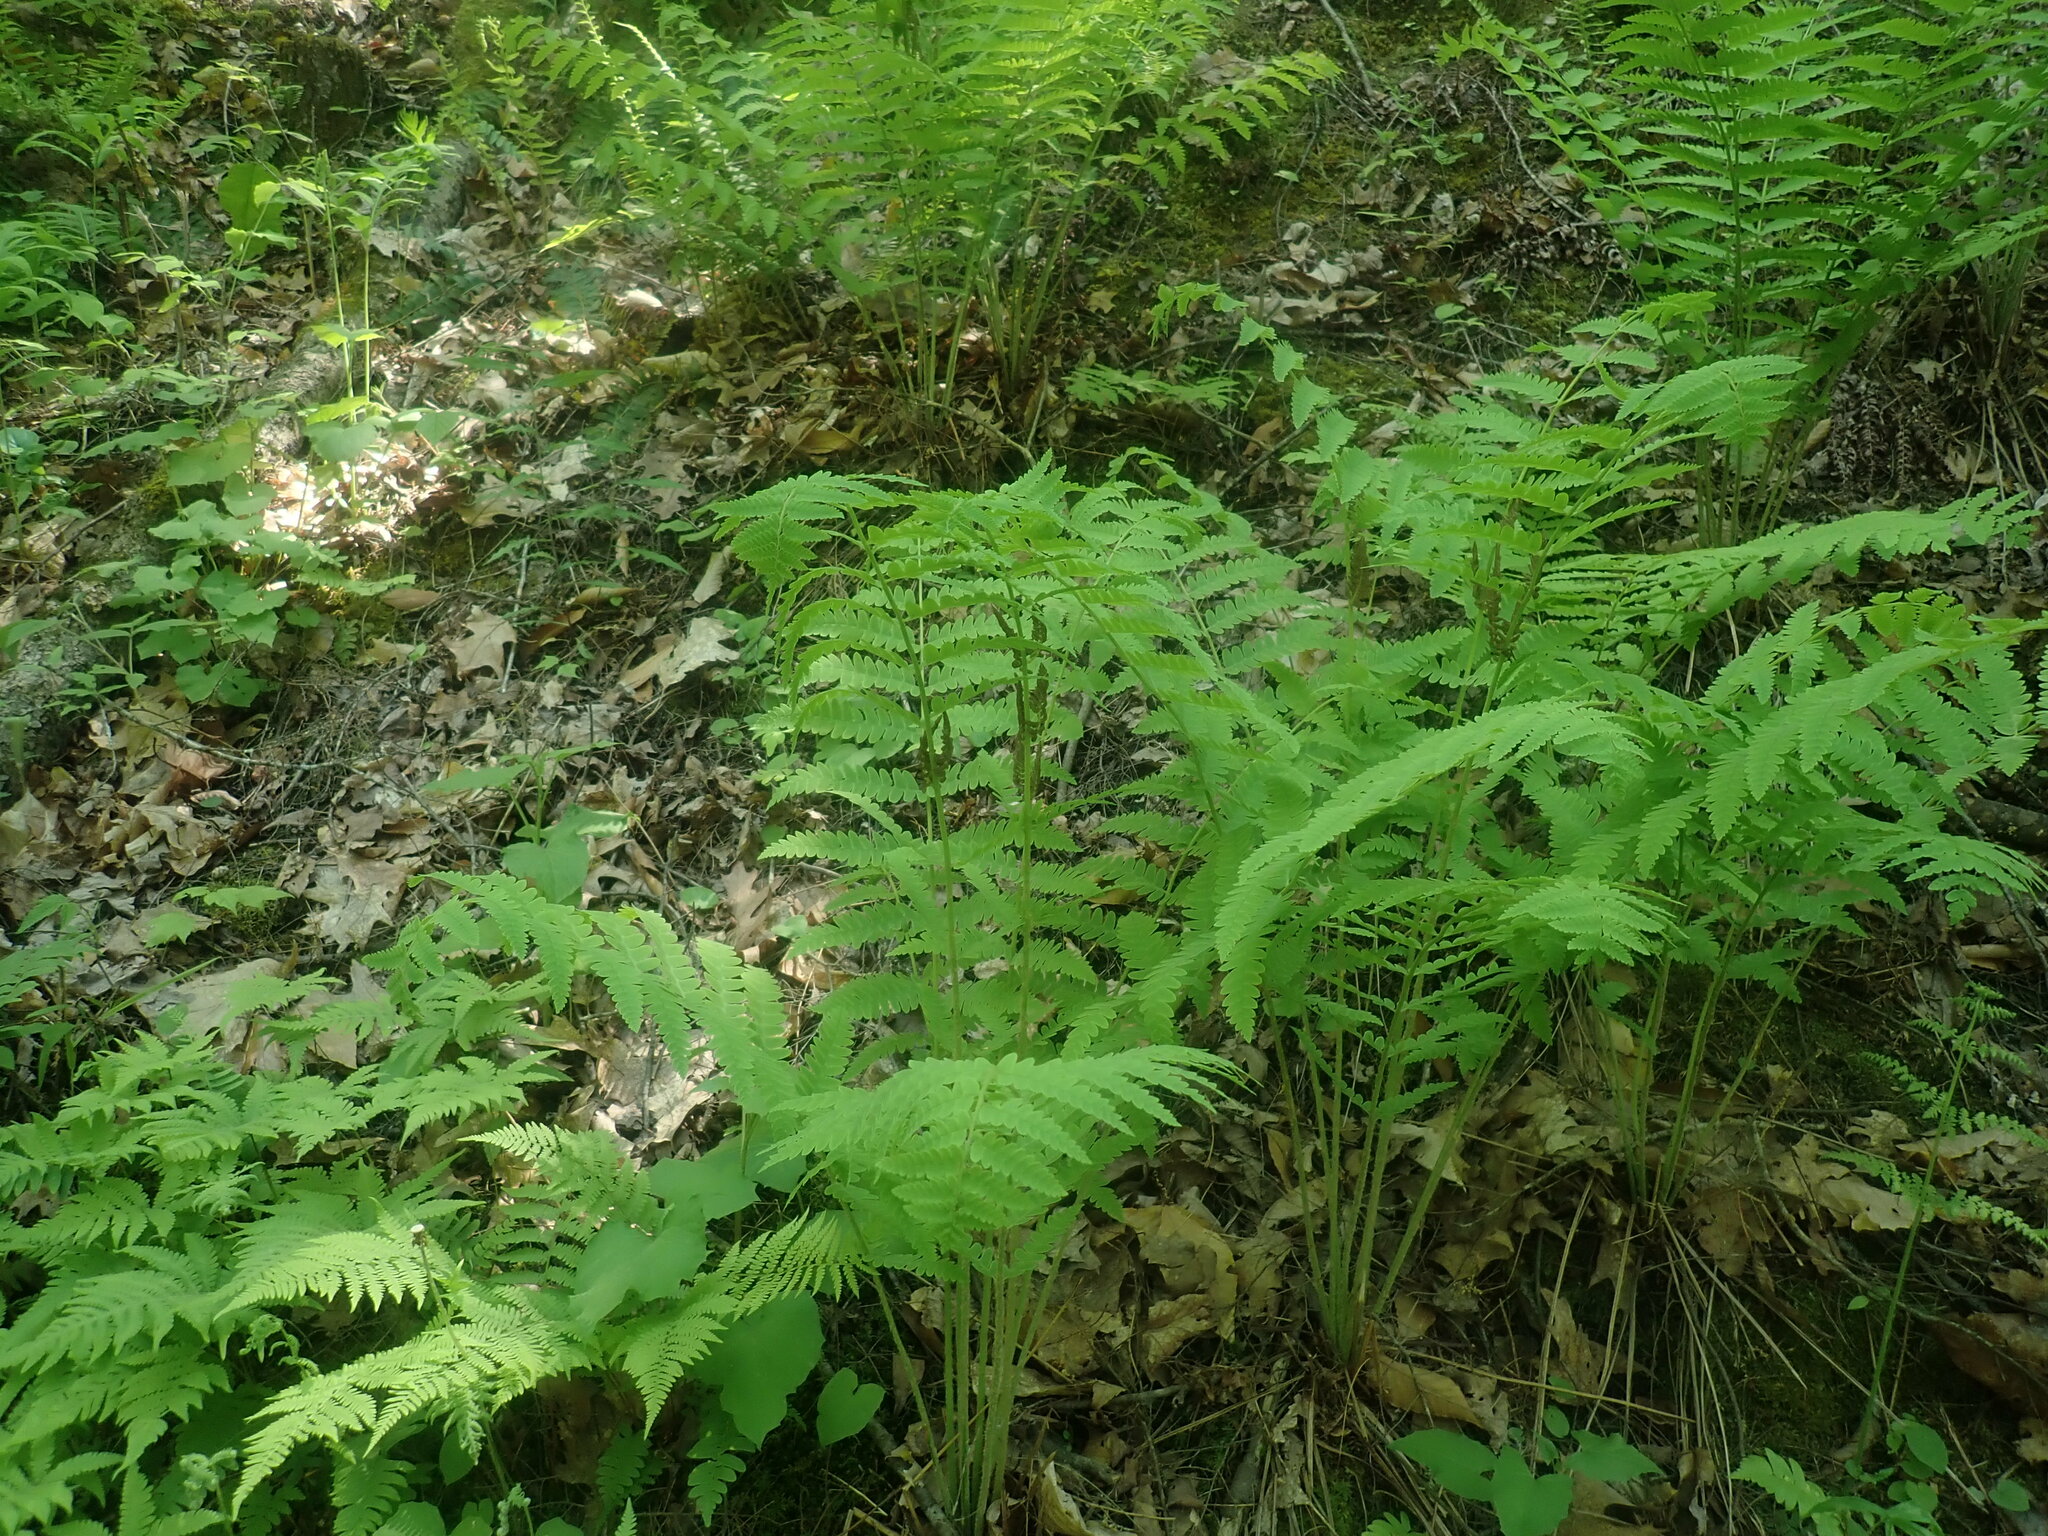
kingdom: Plantae
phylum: Tracheophyta
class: Polypodiopsida
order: Osmundales
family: Osmundaceae
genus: Claytosmunda
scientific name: Claytosmunda claytoniana
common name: Clayton's fern
